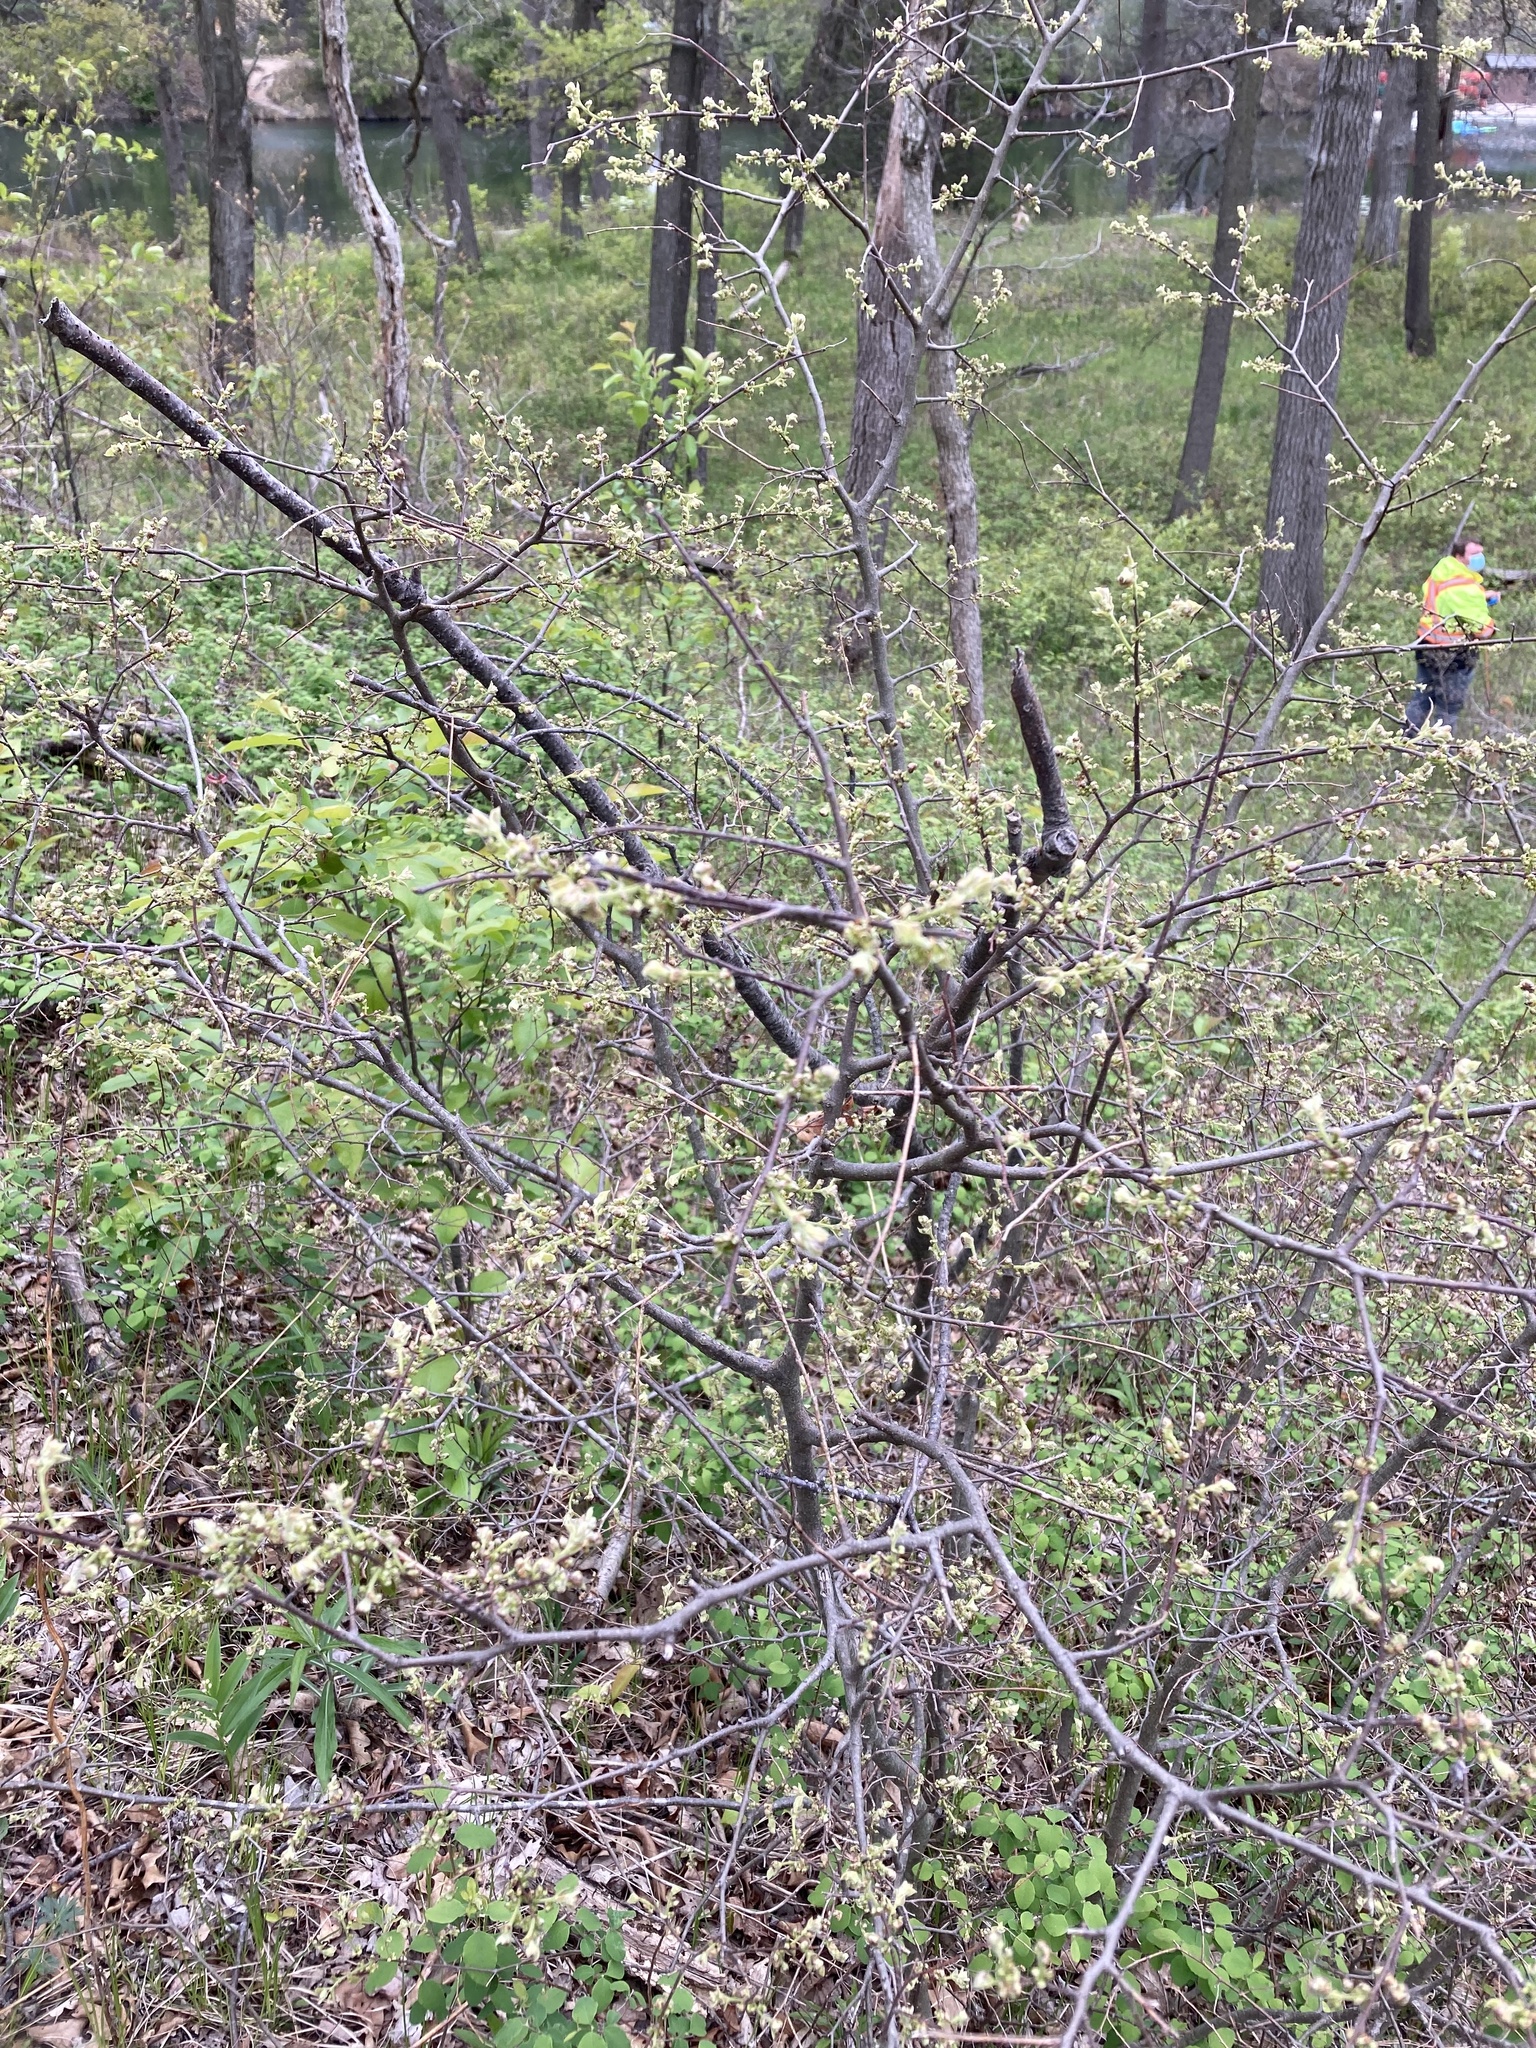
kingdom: Plantae
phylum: Tracheophyta
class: Magnoliopsida
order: Rosales
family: Cannabaceae
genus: Celtis
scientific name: Celtis tenuifolia
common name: Georgia hackberry
